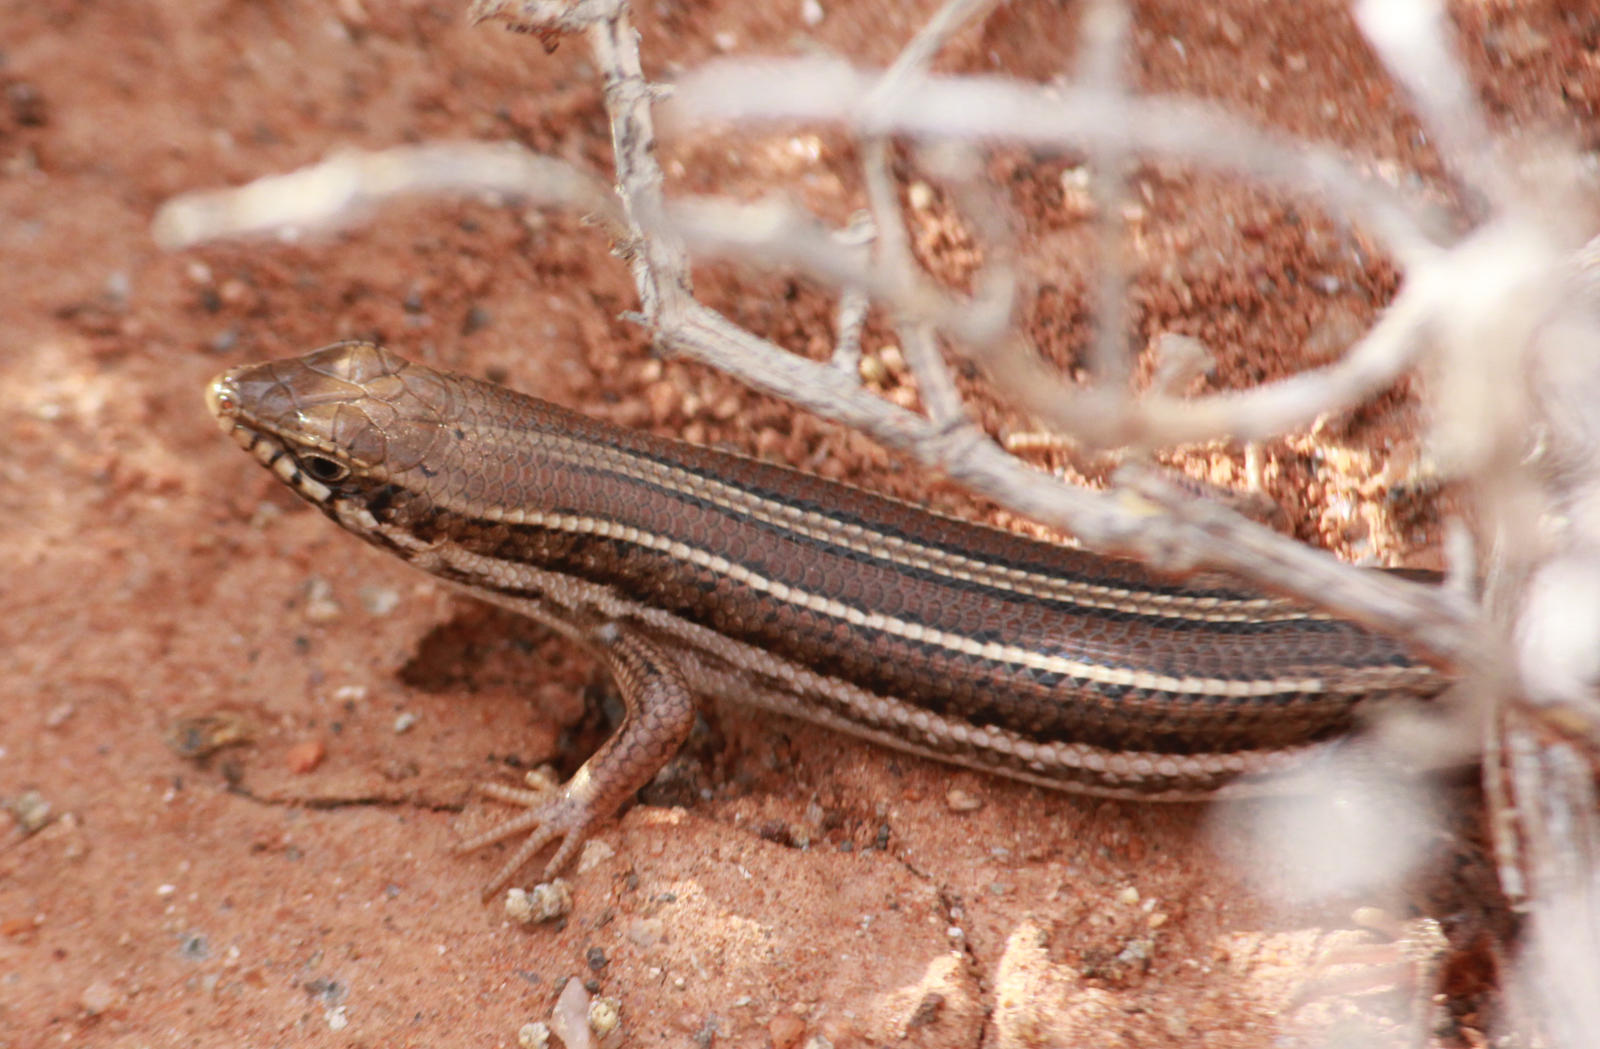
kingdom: Animalia
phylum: Chordata
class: Squamata
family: Scincidae
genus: Trachylepis
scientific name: Trachylepis occidentalis
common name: Western three-striped skink
